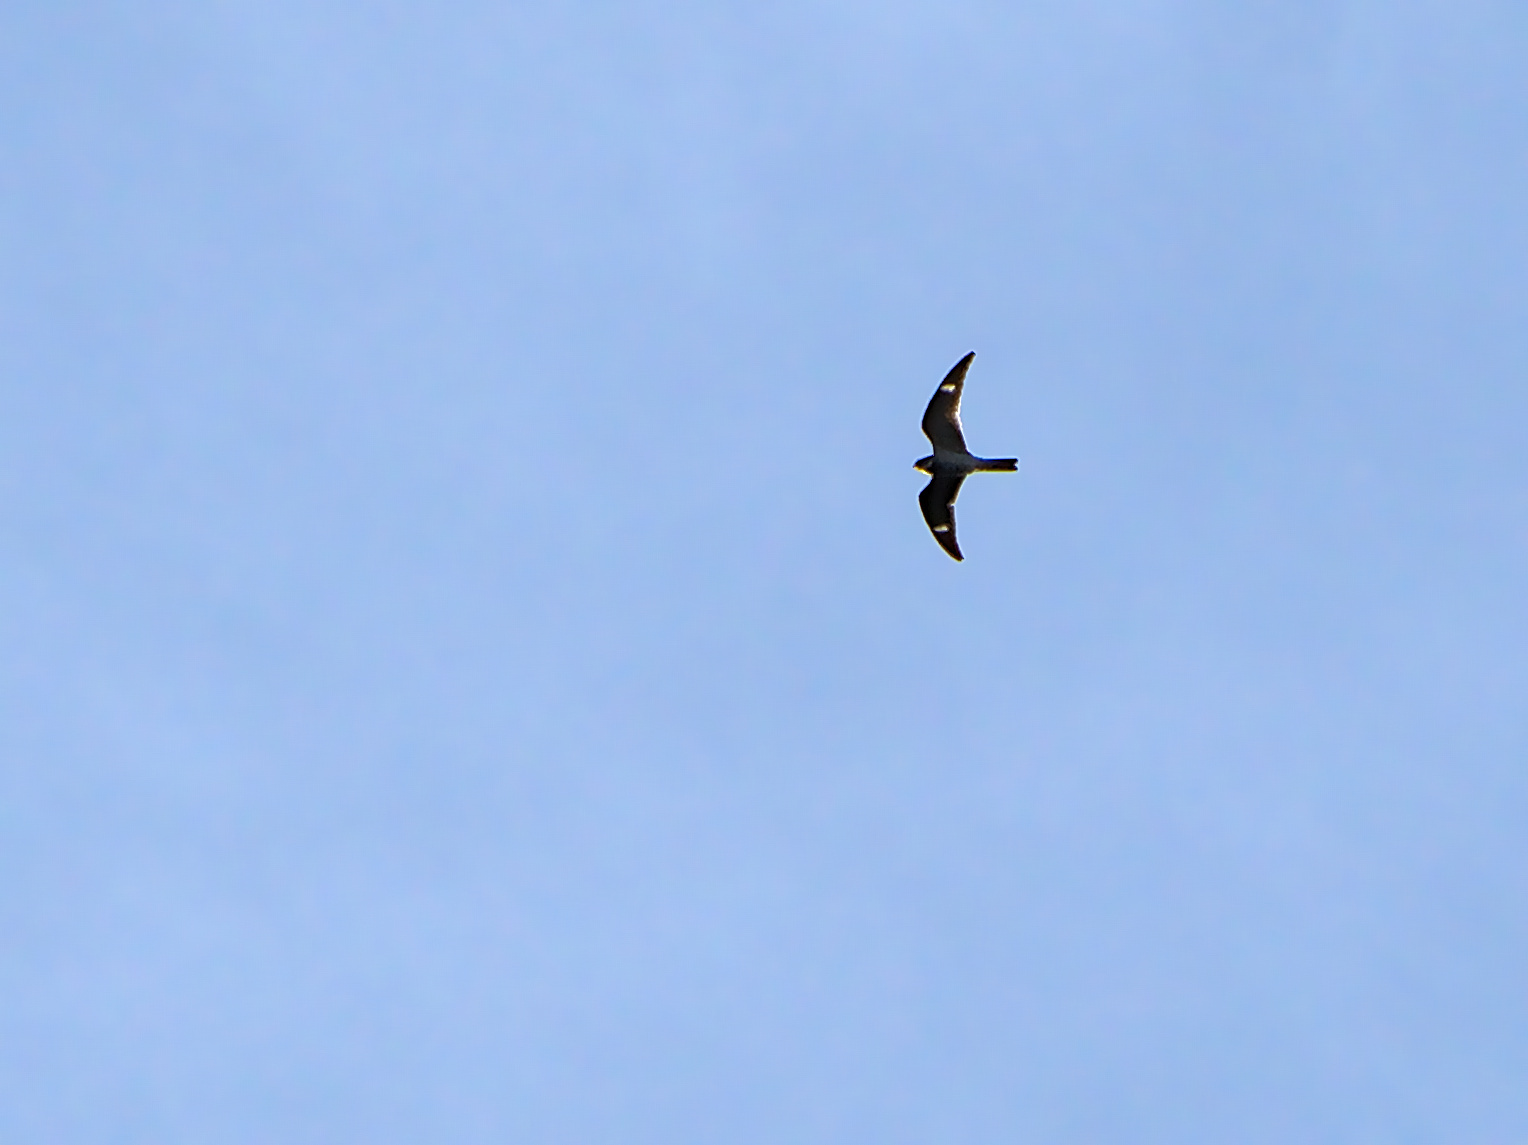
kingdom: Animalia
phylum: Chordata
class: Aves
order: Caprimulgiformes
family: Caprimulgidae
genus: Chordeiles
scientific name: Chordeiles minor
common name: Common nighthawk
